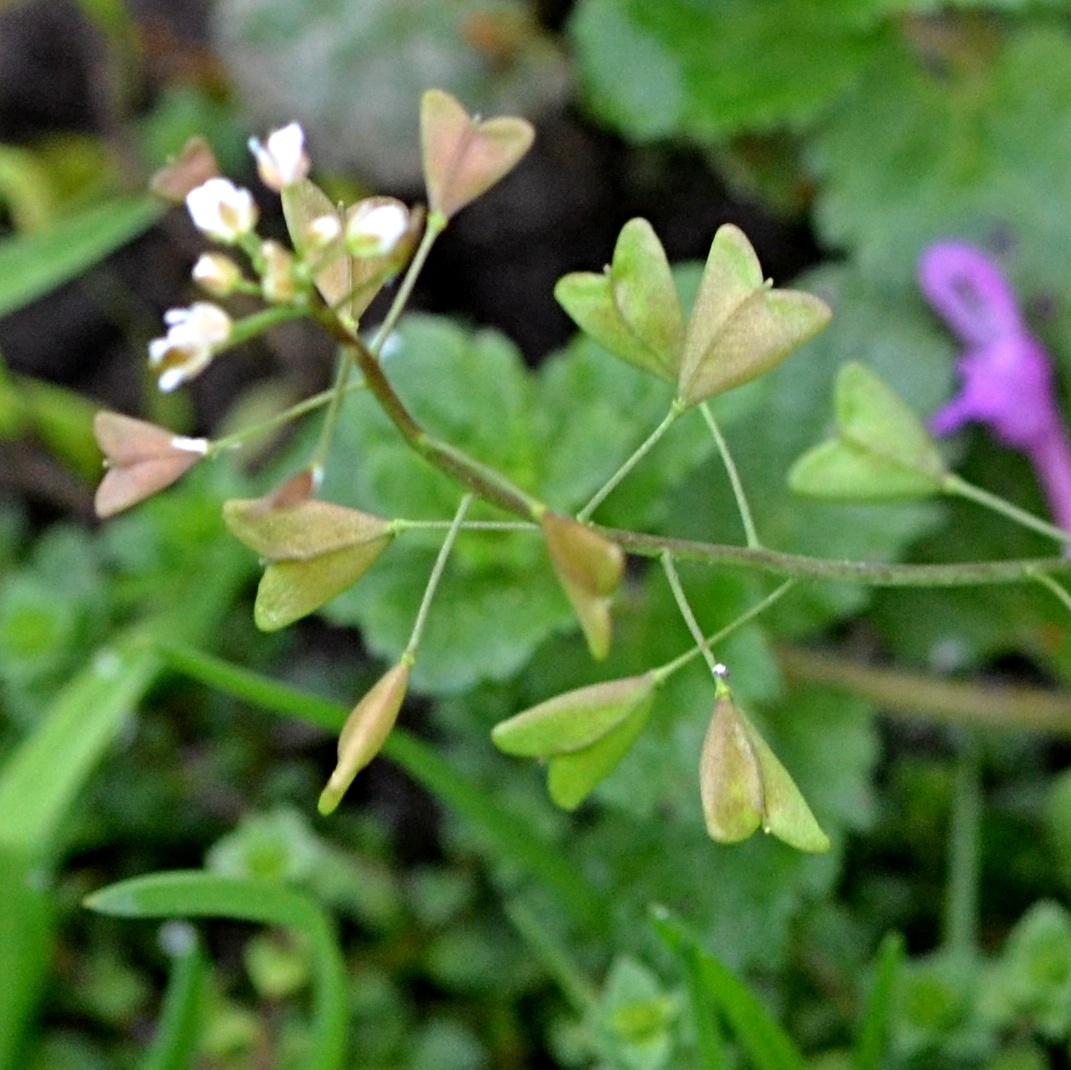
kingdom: Plantae
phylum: Tracheophyta
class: Magnoliopsida
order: Brassicales
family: Brassicaceae
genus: Capsella
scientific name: Capsella bursa-pastoris
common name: Shepherd's purse
